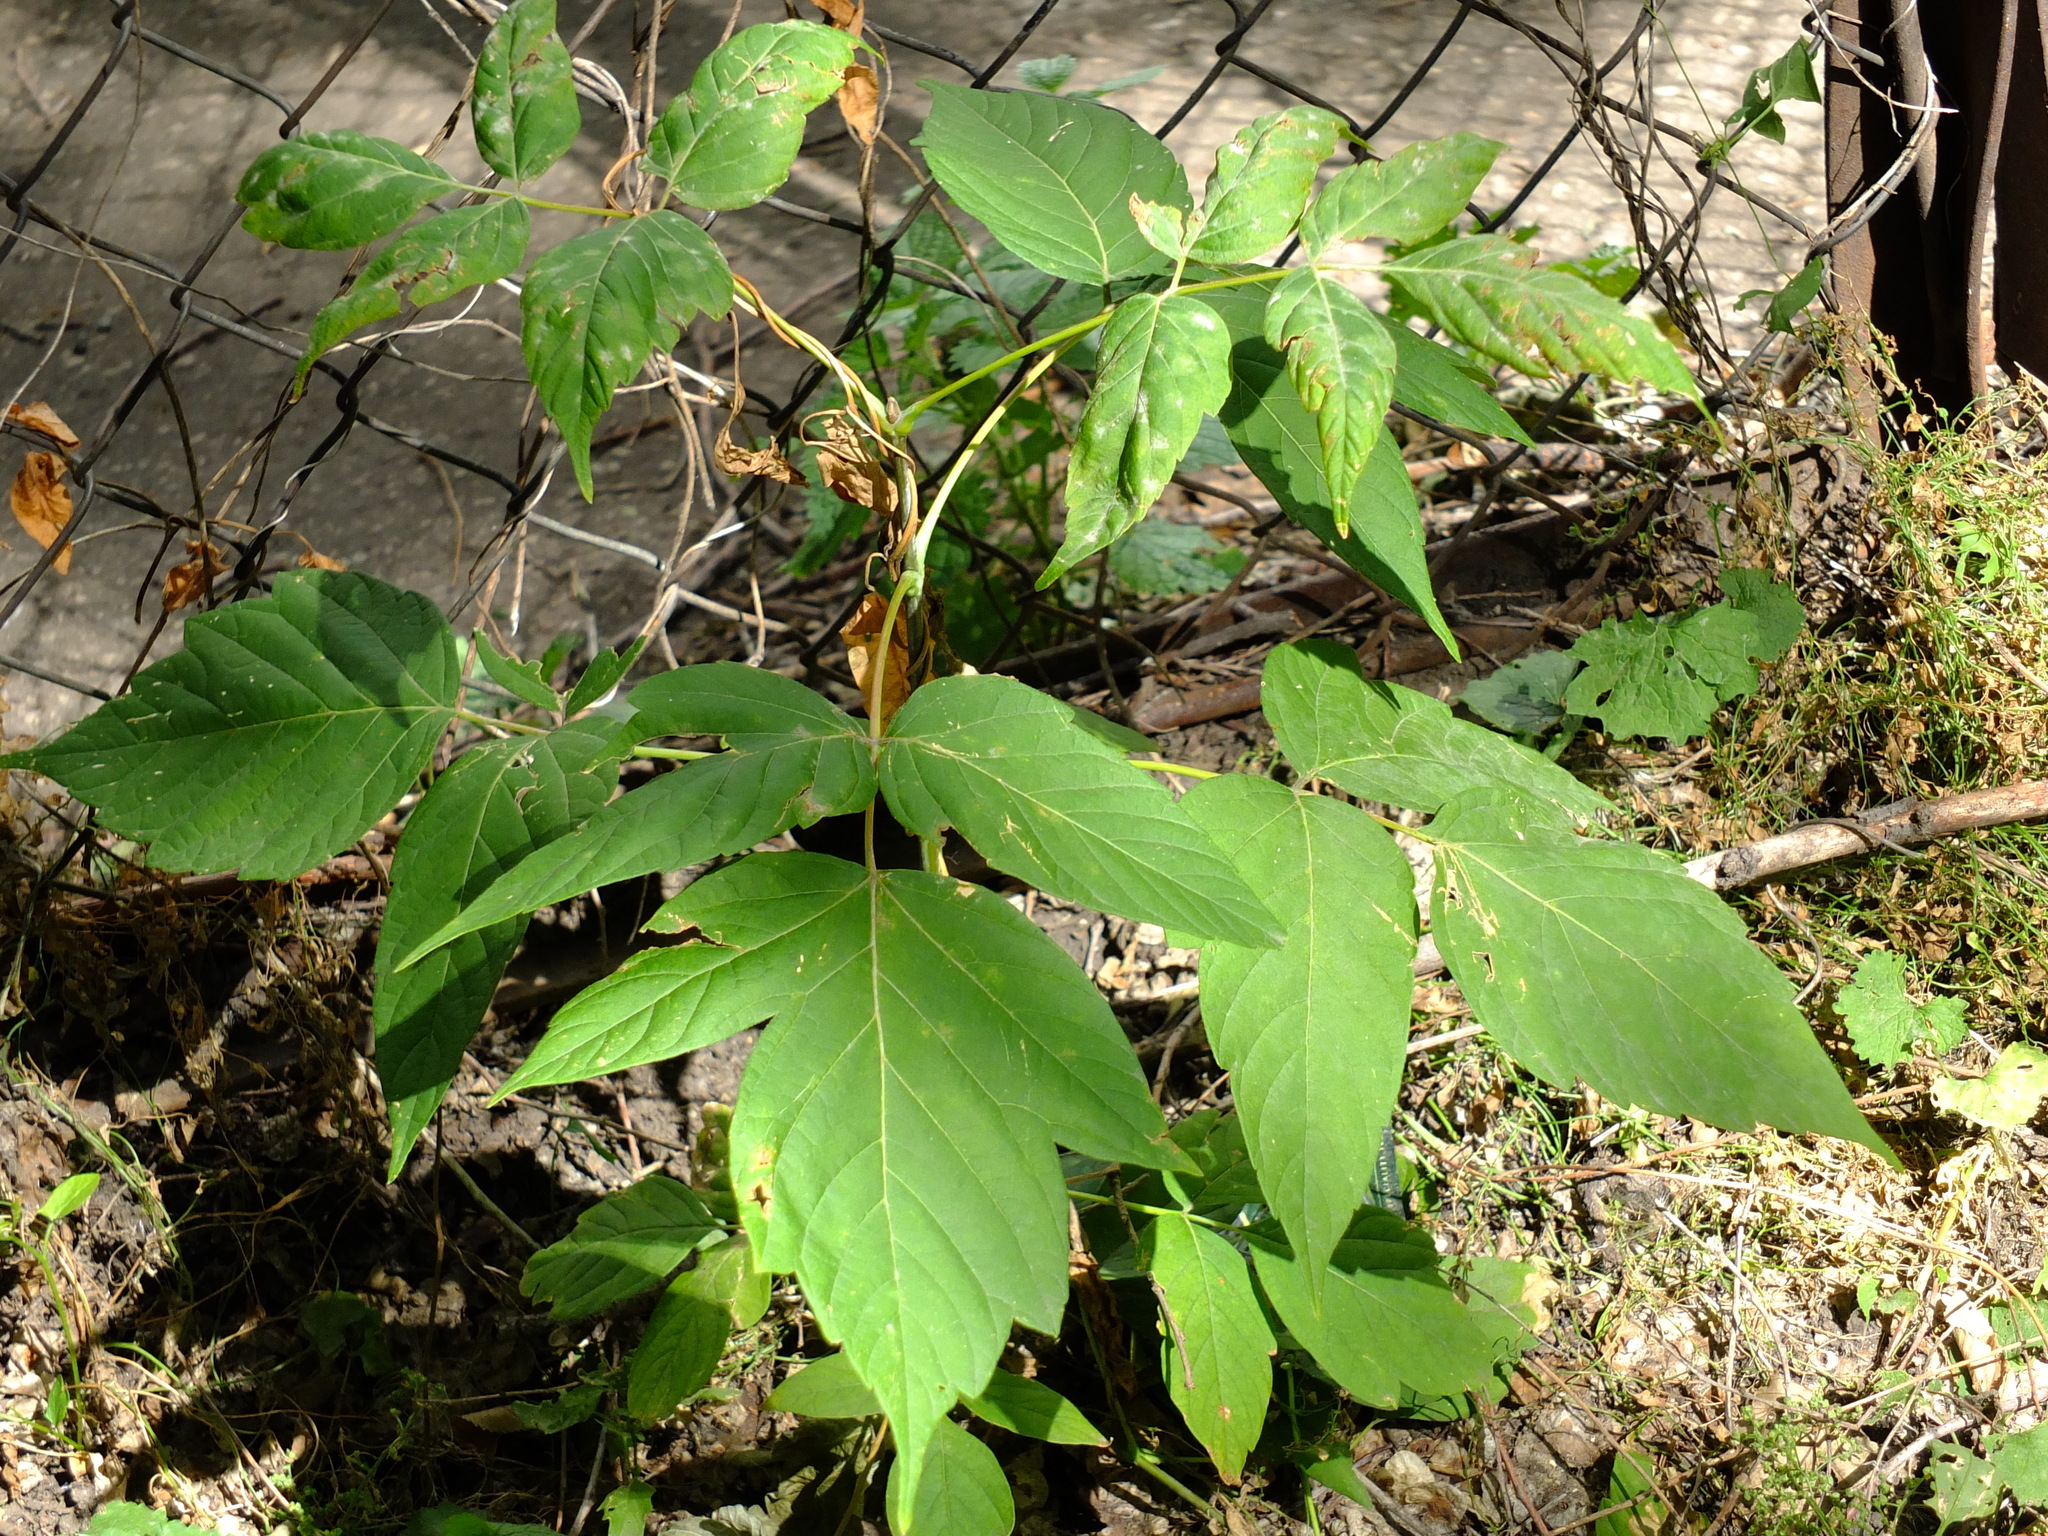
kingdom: Plantae
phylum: Tracheophyta
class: Magnoliopsida
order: Sapindales
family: Sapindaceae
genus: Acer
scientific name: Acer negundo
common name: Ashleaf maple
